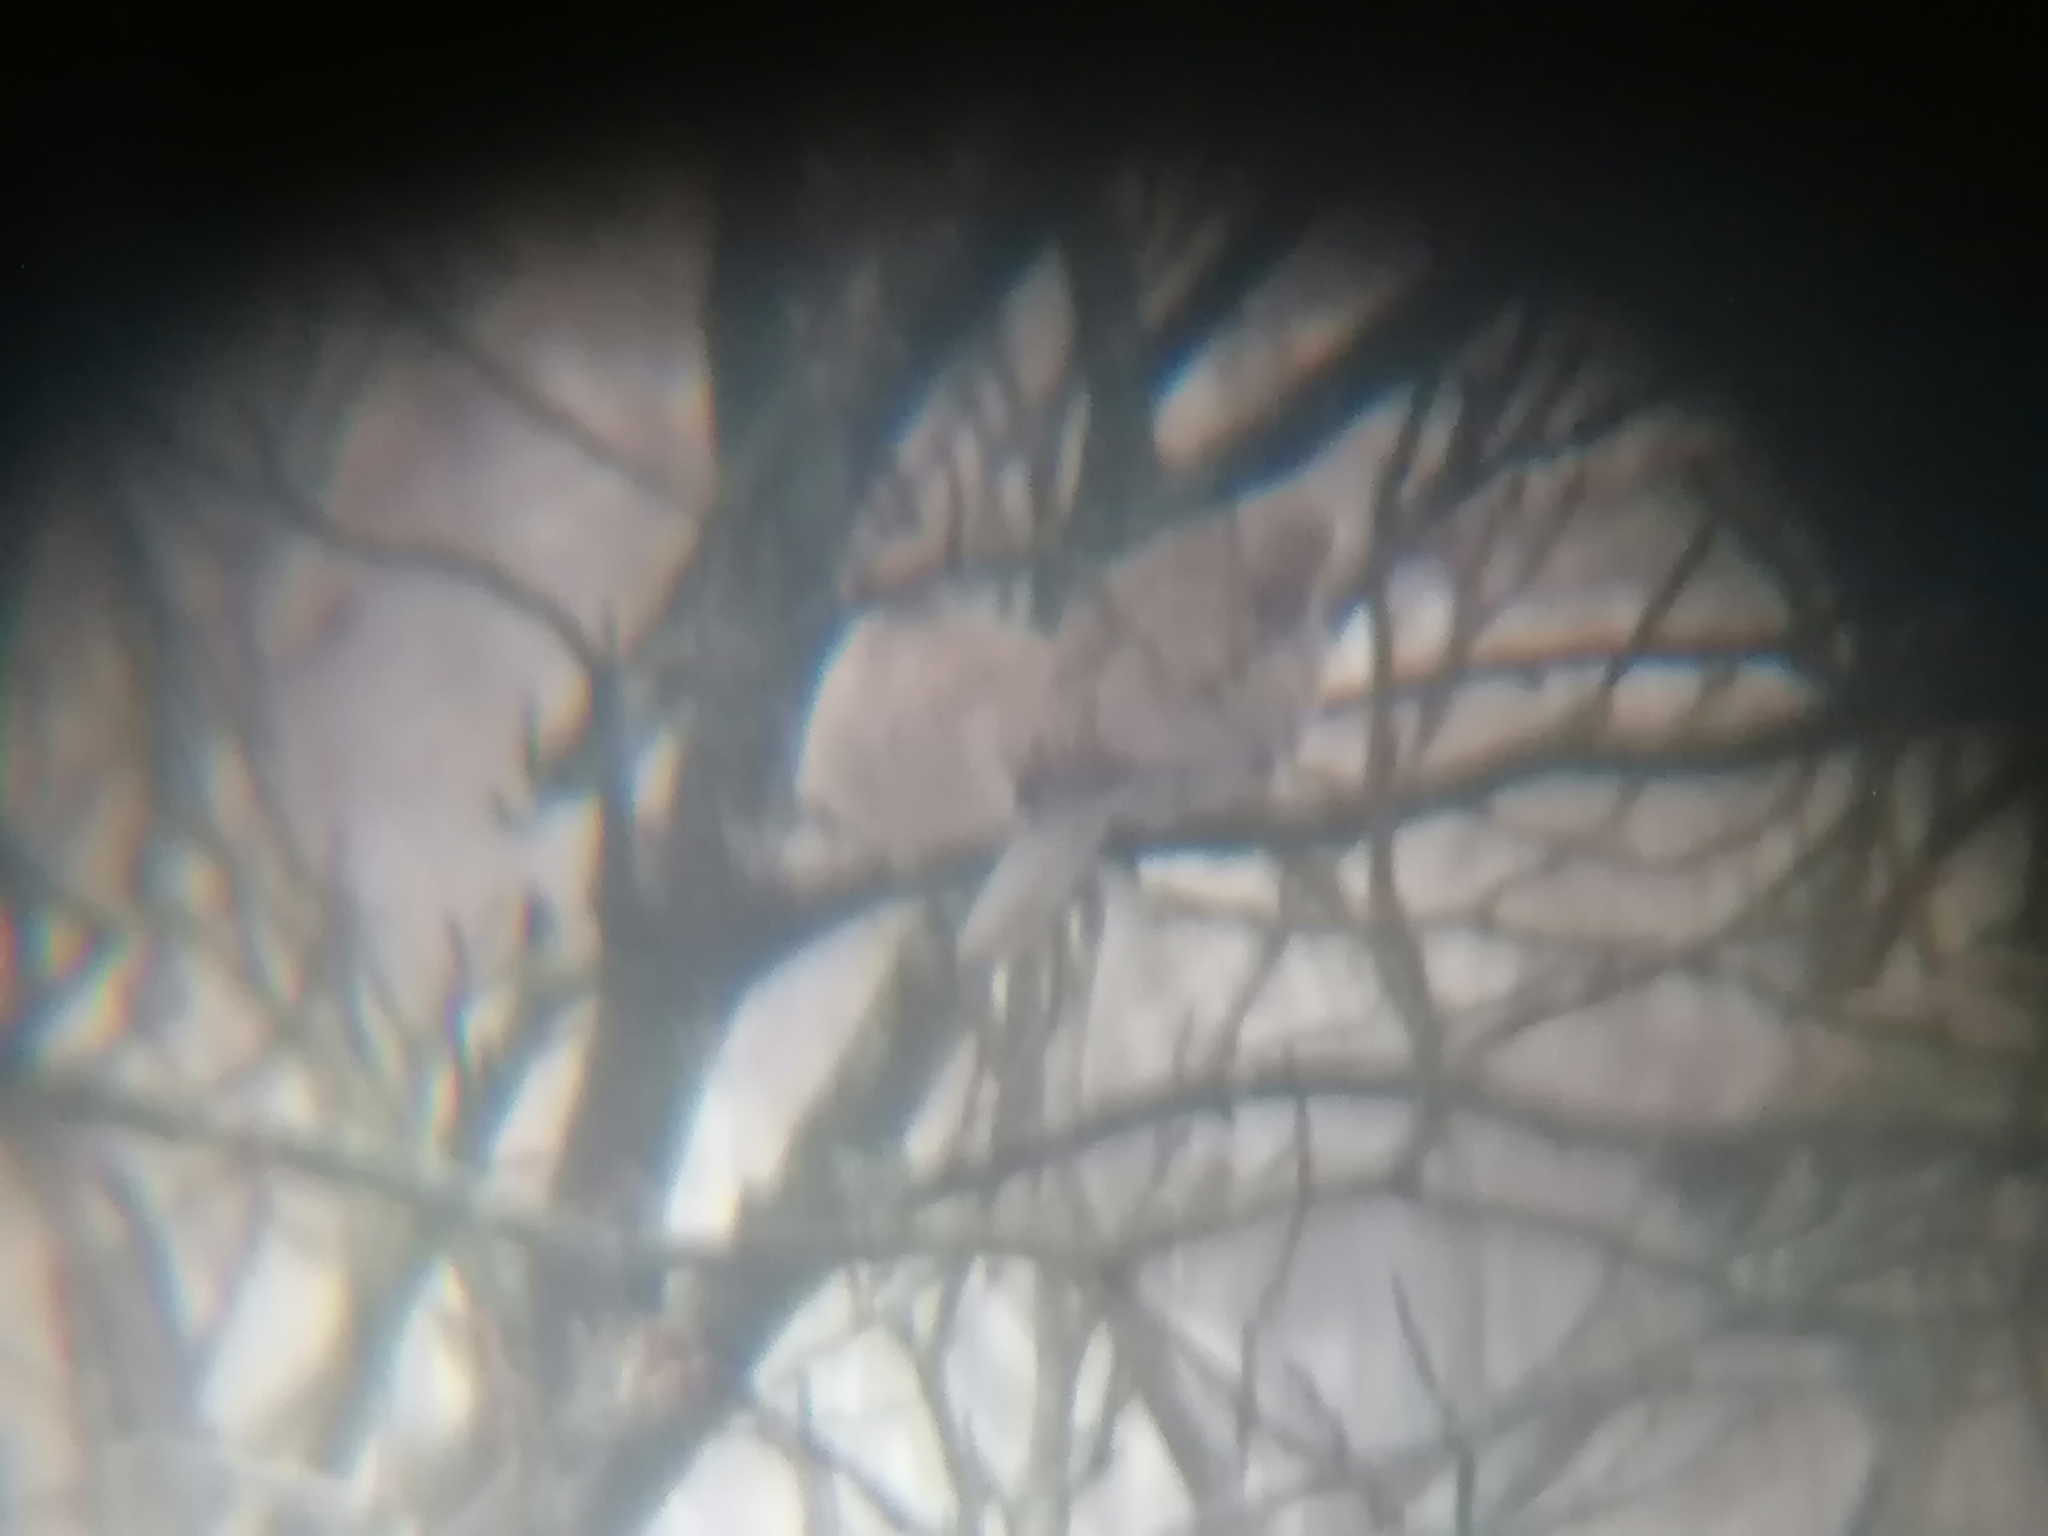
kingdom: Animalia
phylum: Chordata
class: Aves
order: Columbiformes
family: Columbidae
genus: Streptopelia
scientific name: Streptopelia decaocto
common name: Eurasian collared dove
